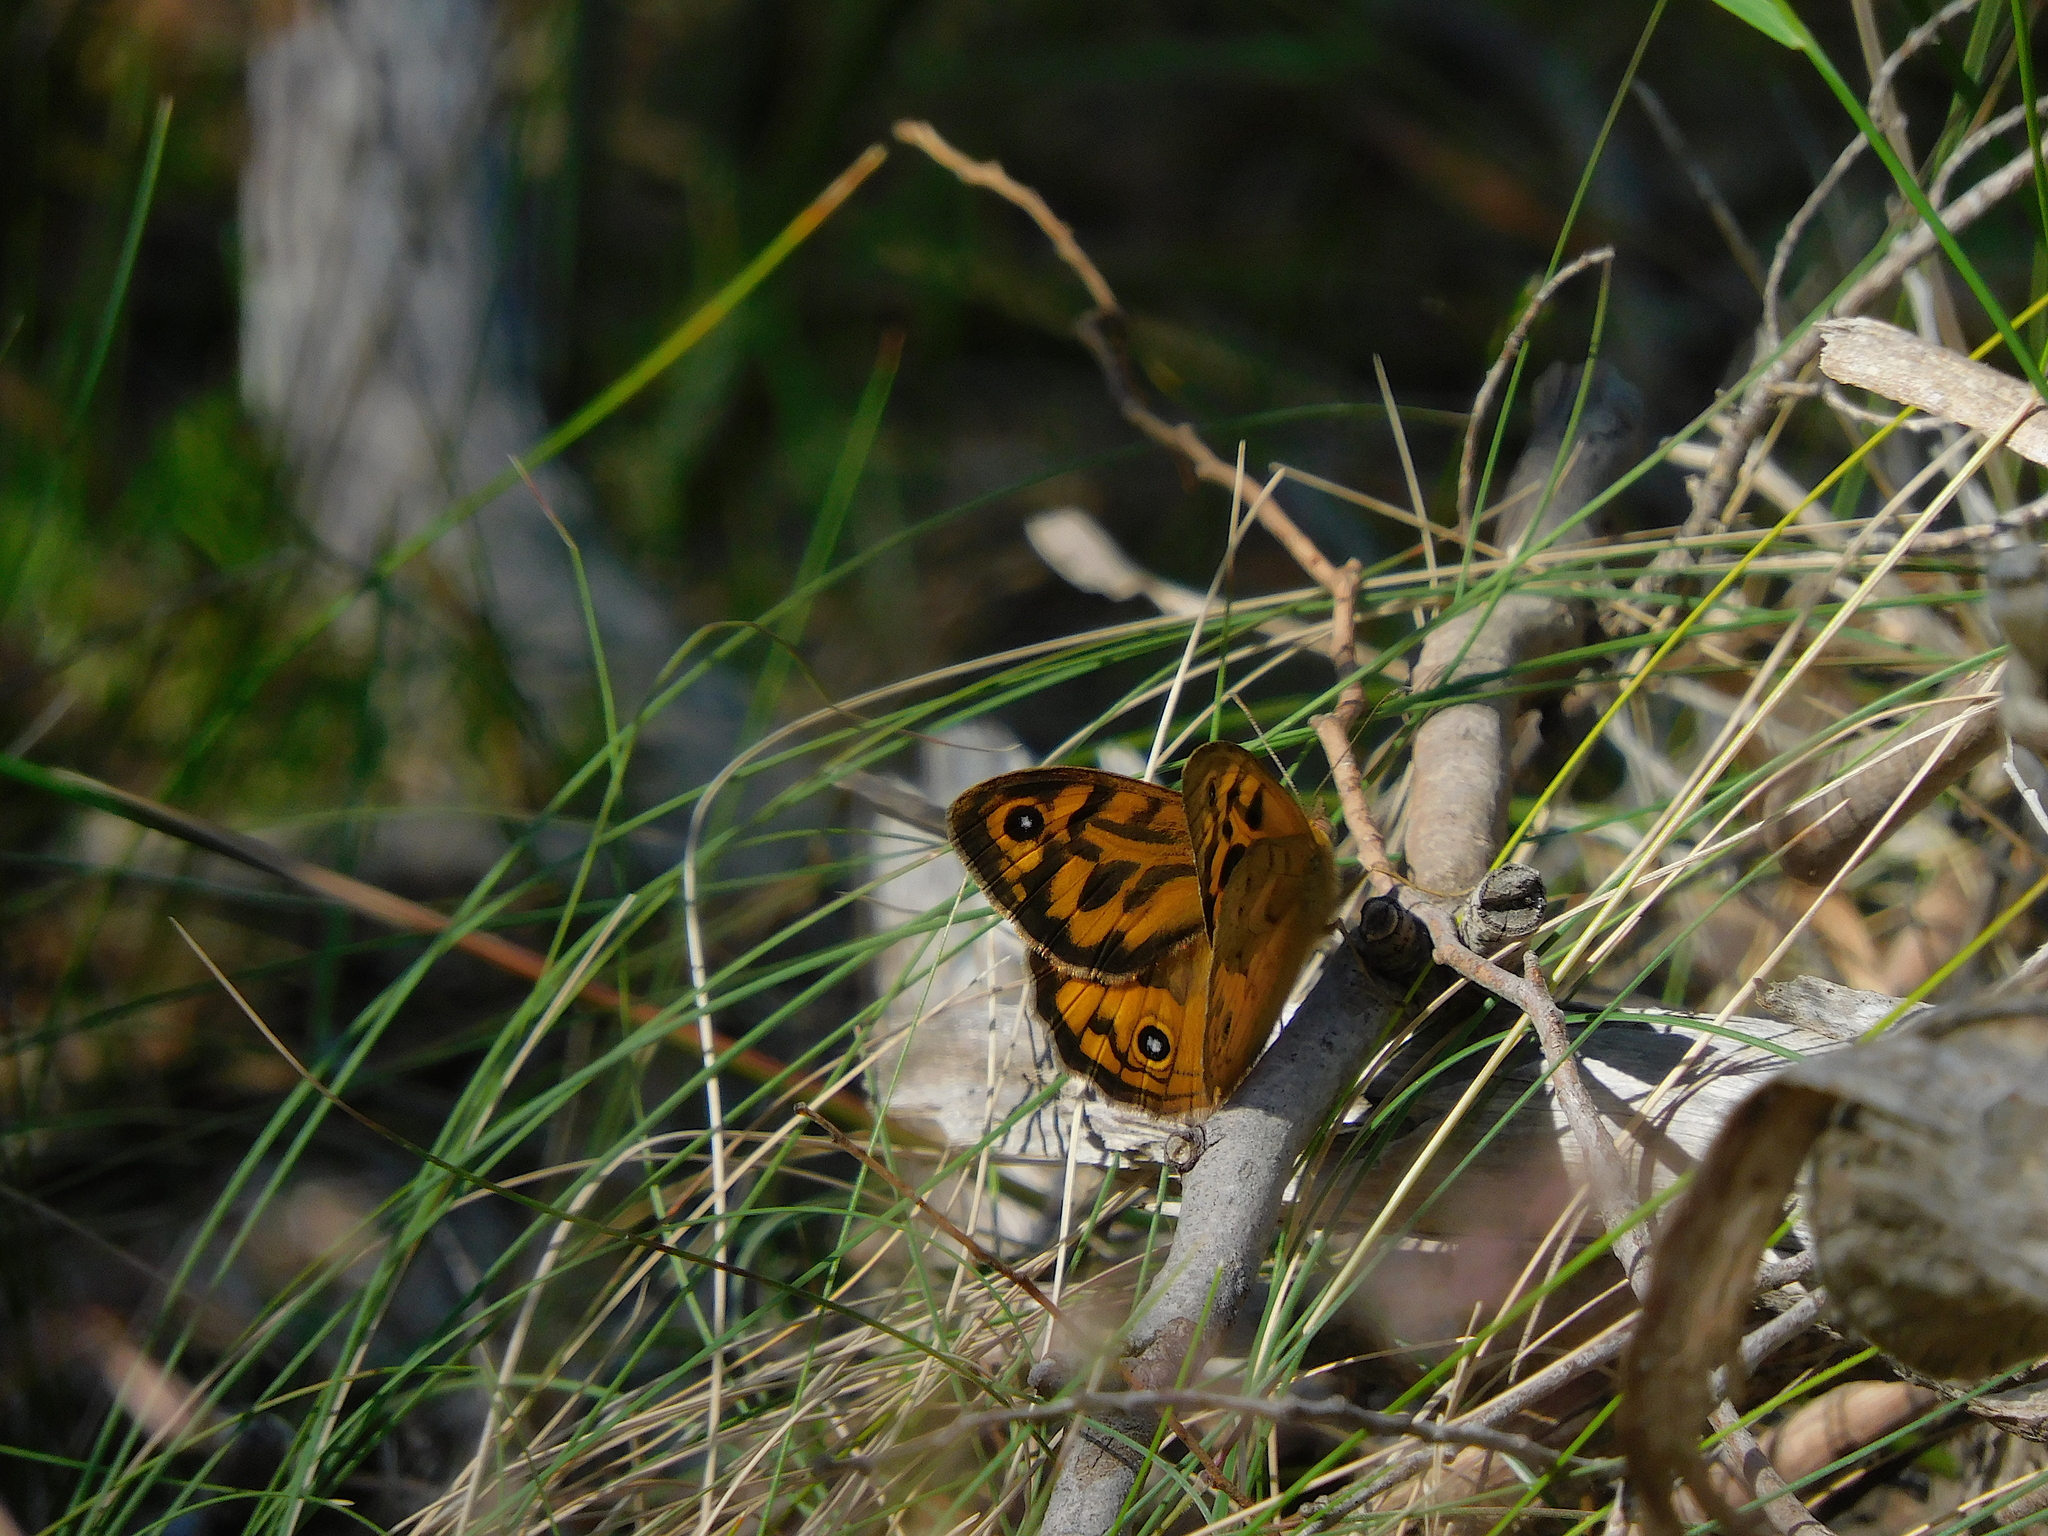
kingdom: Animalia
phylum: Arthropoda
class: Insecta
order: Lepidoptera
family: Nymphalidae
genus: Heteronympha
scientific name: Heteronympha merope
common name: Common brown
